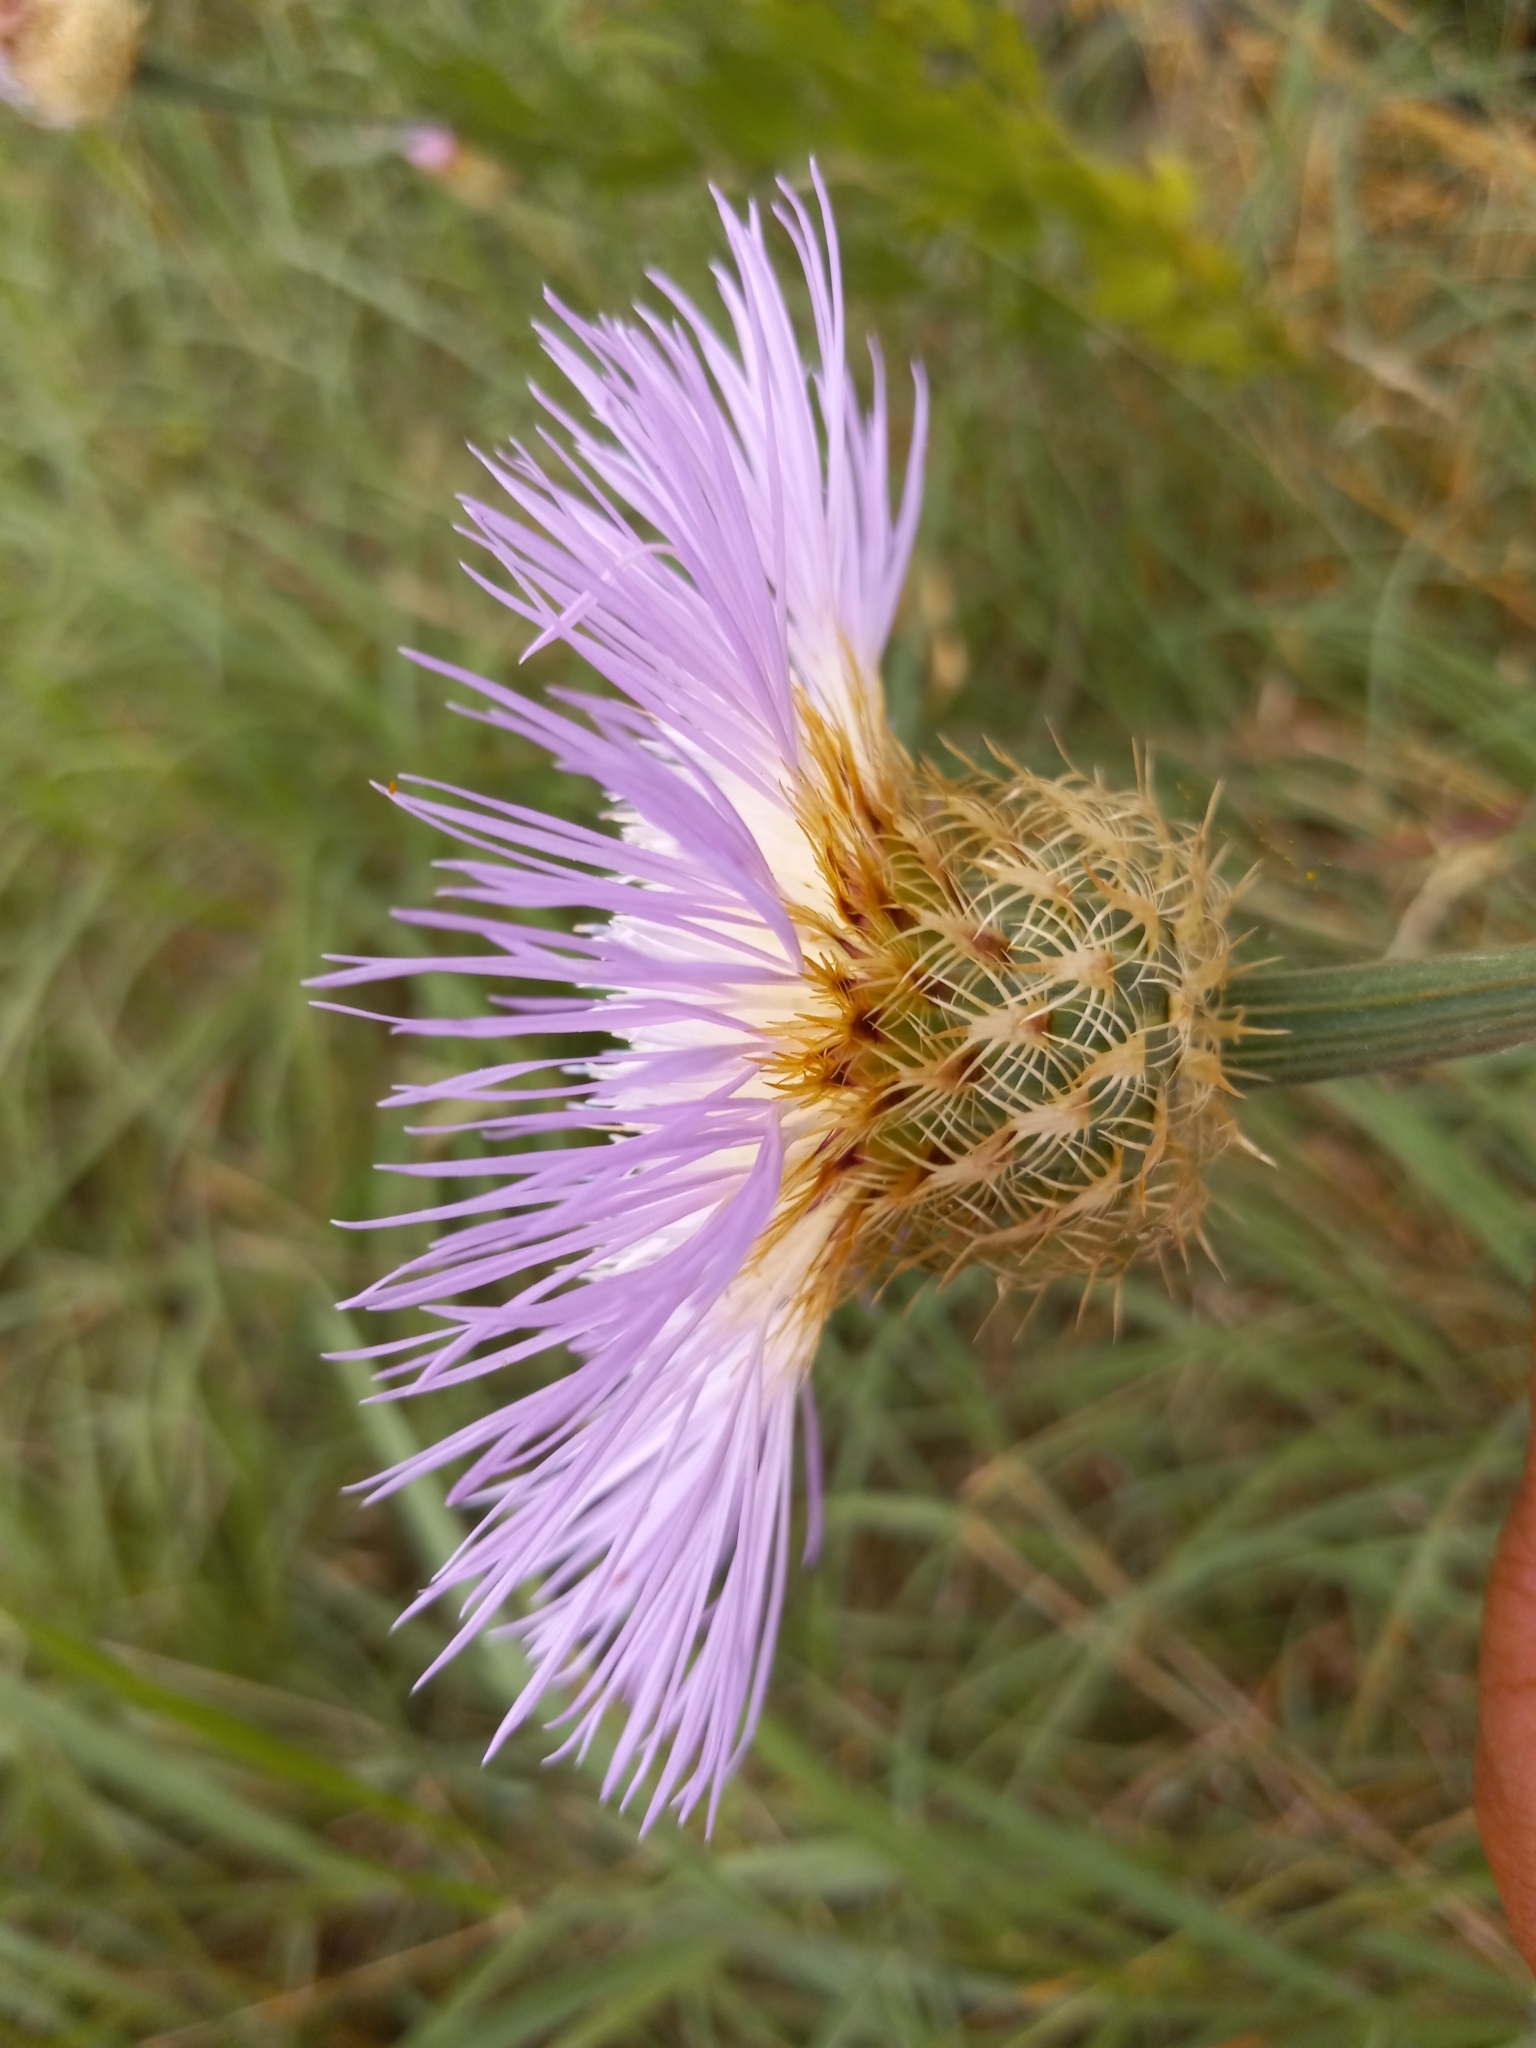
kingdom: Plantae
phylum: Tracheophyta
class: Magnoliopsida
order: Asterales
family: Asteraceae
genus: Plectocephalus
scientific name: Plectocephalus americanus
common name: American basket-flower
